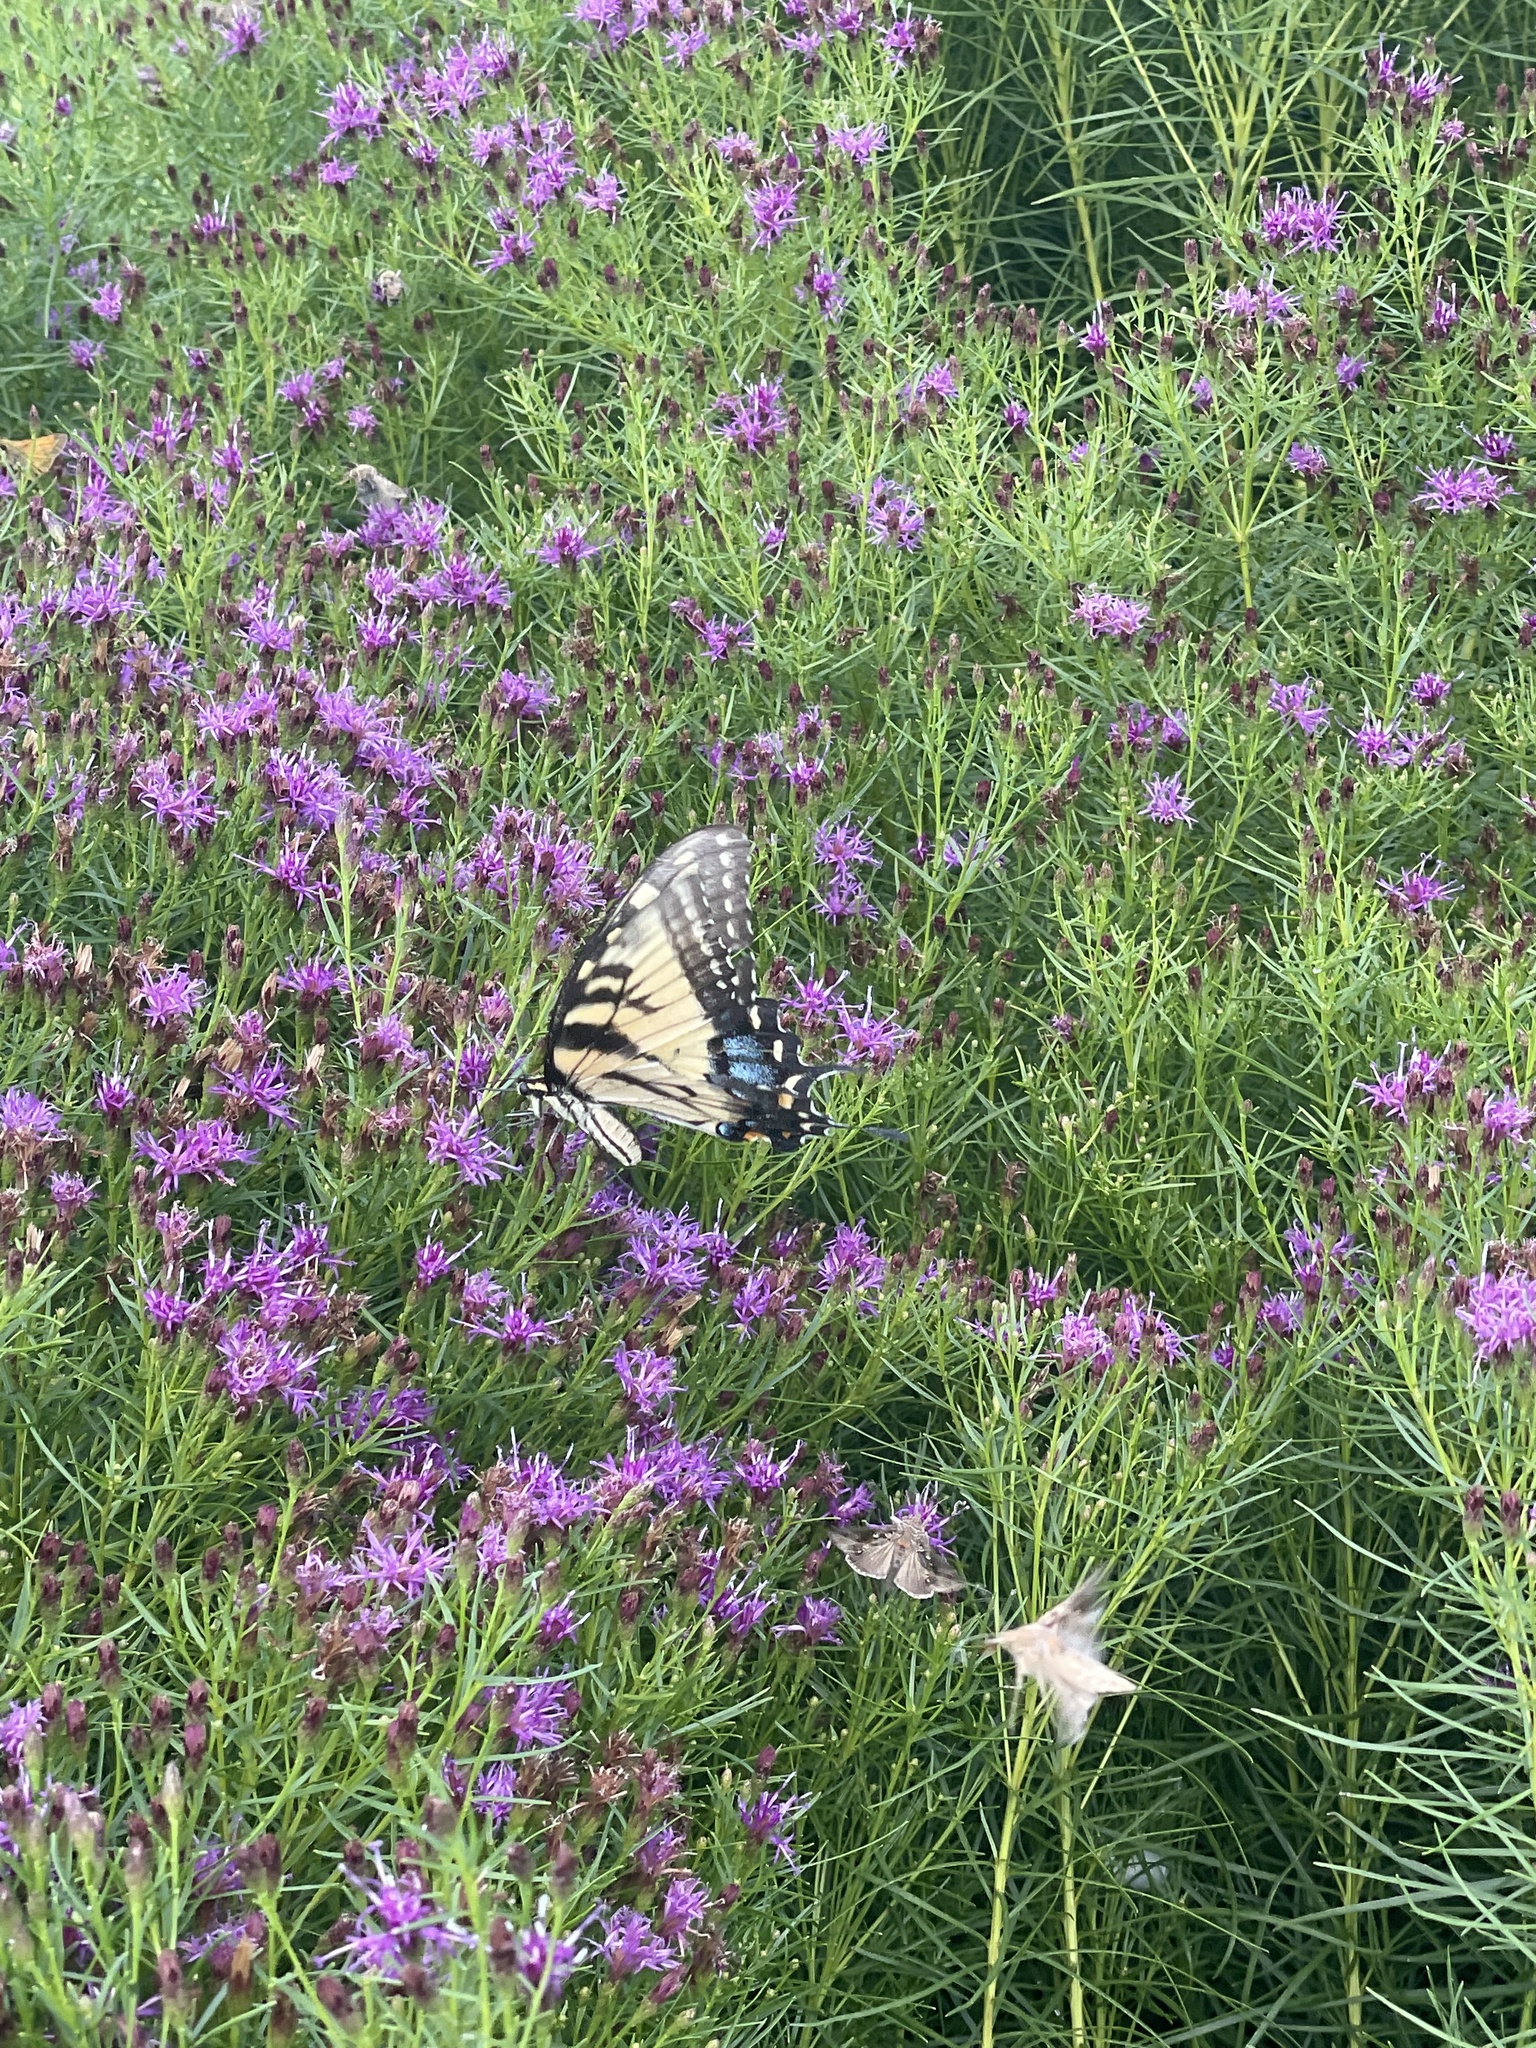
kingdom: Animalia
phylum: Arthropoda
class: Insecta
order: Lepidoptera
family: Papilionidae
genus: Papilio
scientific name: Papilio glaucus
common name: Tiger swallowtail
